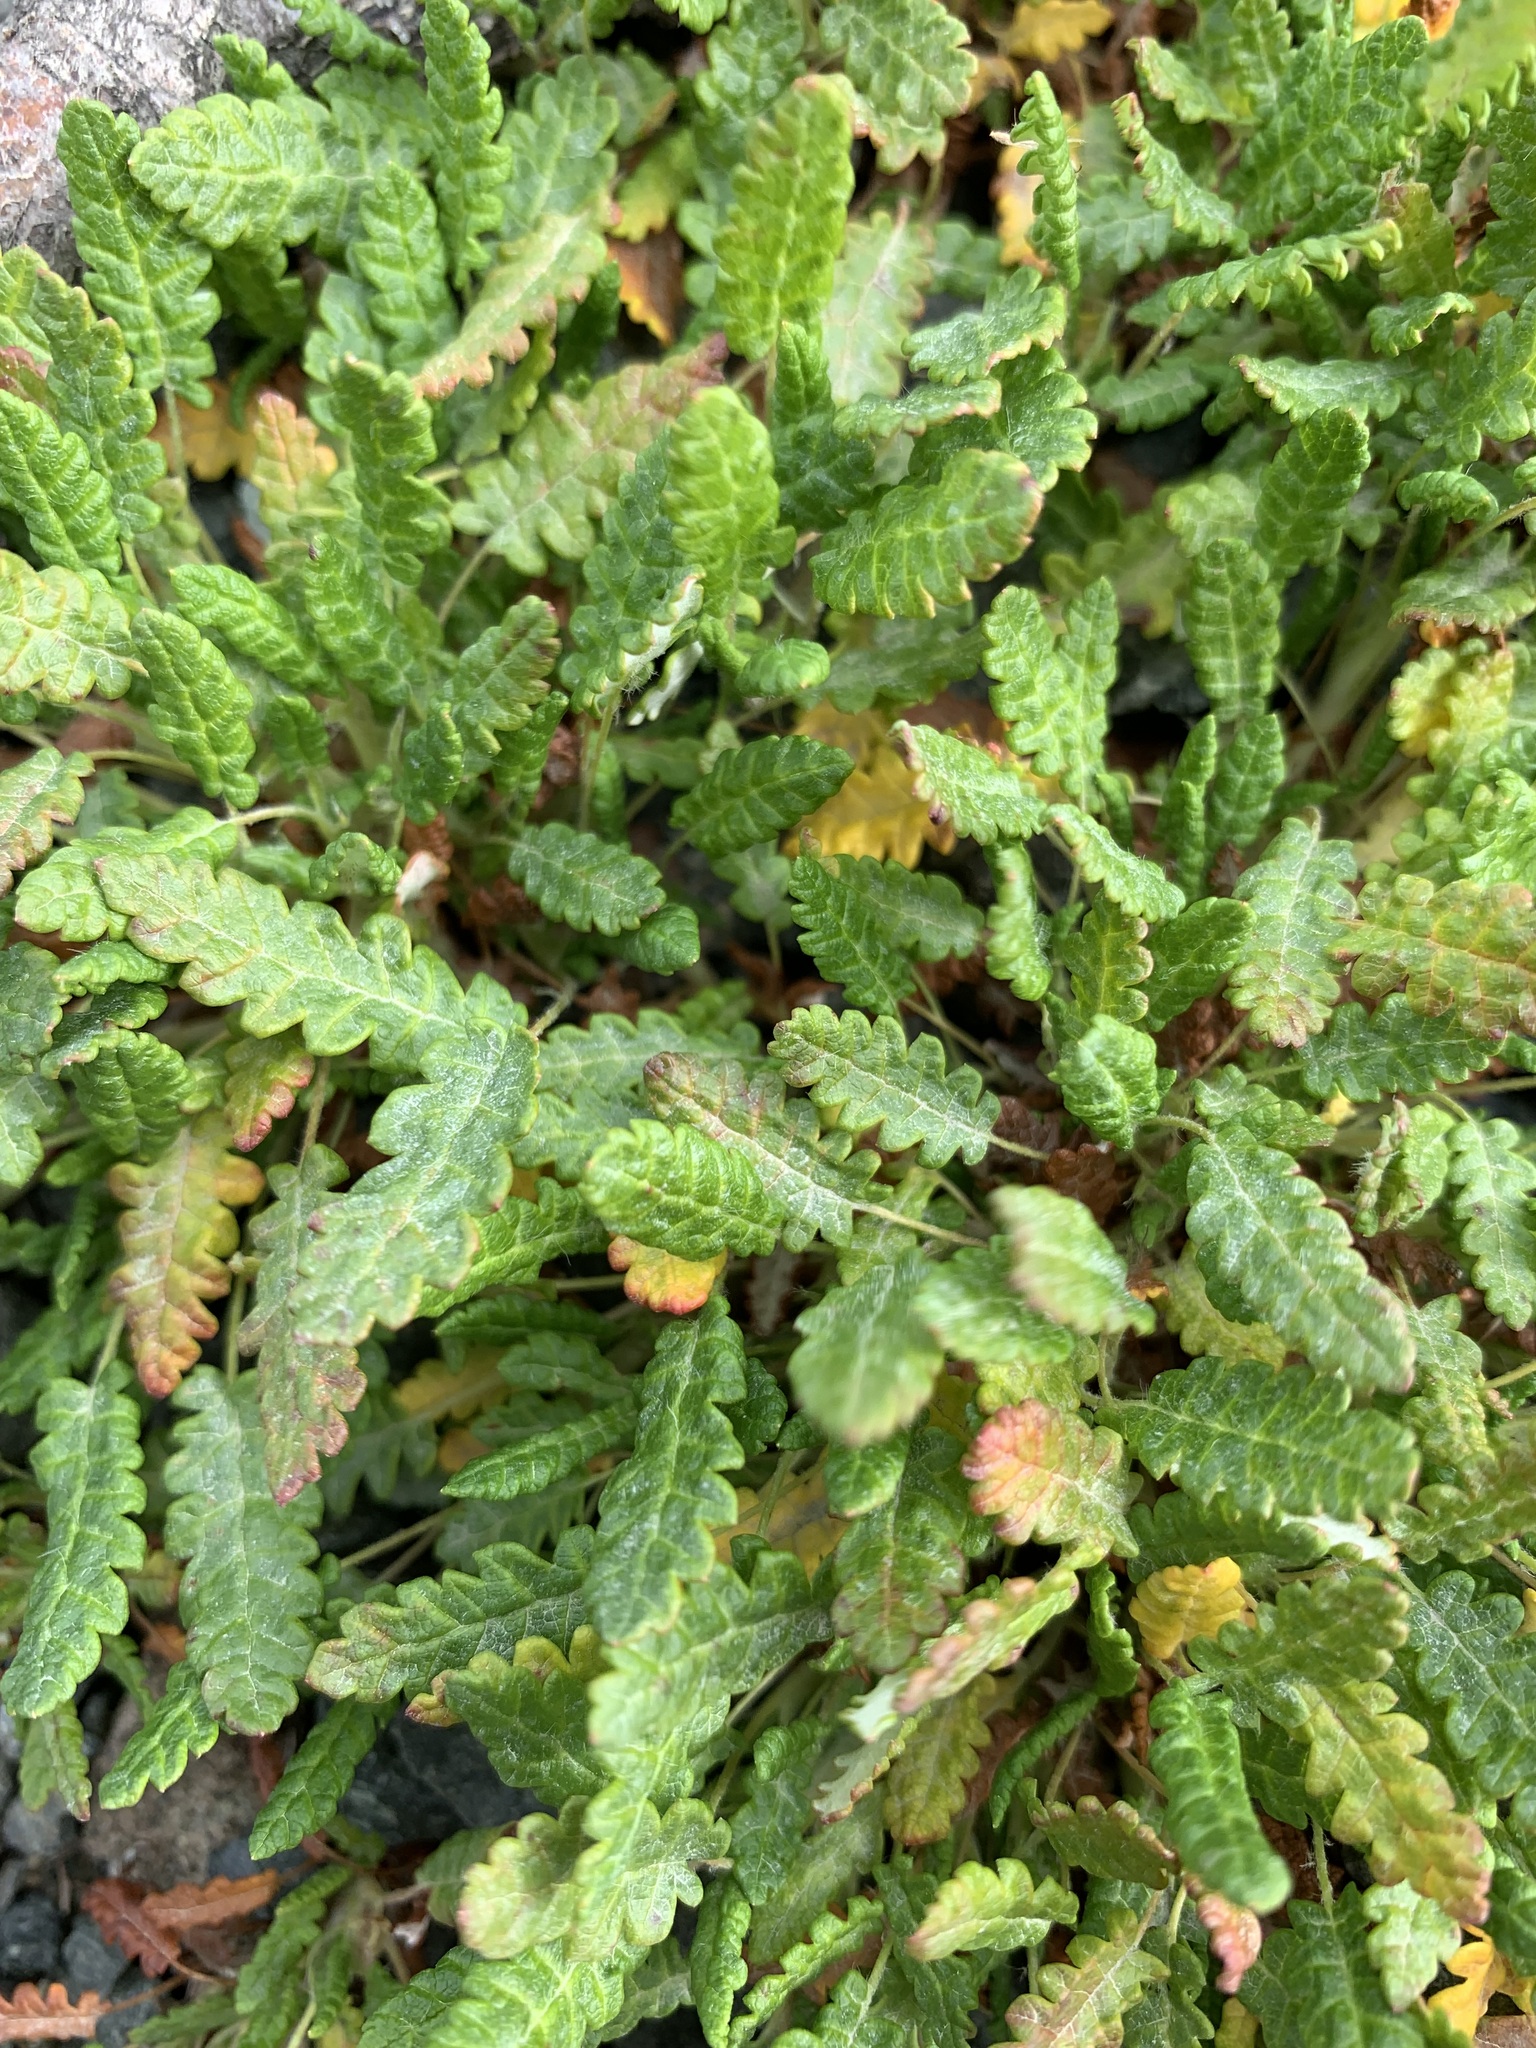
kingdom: Plantae
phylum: Tracheophyta
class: Magnoliopsida
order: Rosales
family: Rosaceae
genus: Dryas
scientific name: Dryas octopetala
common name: Eight-petal mountain-avens
